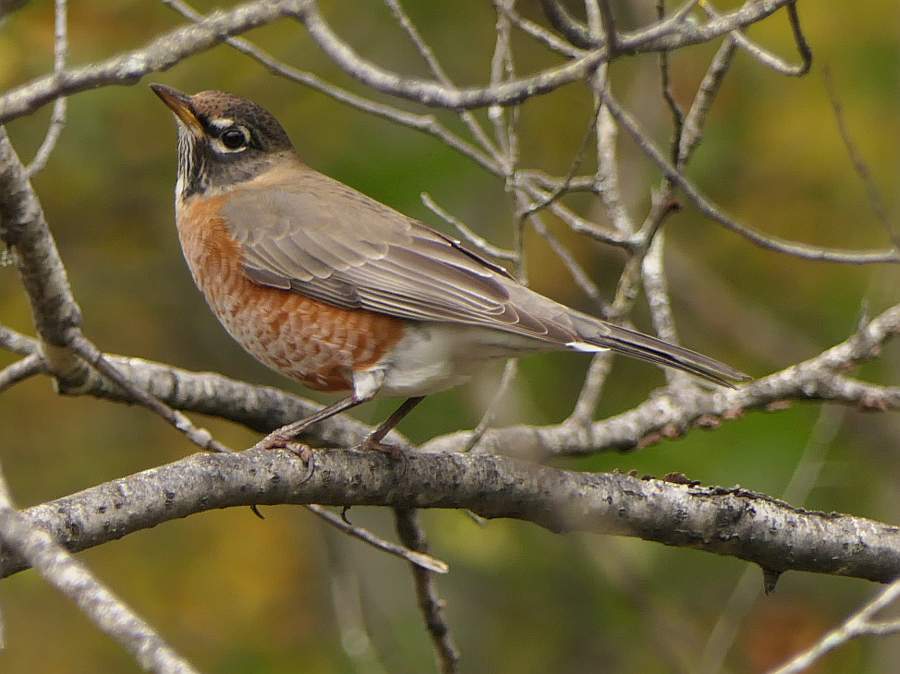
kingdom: Animalia
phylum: Chordata
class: Aves
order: Passeriformes
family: Turdidae
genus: Turdus
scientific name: Turdus migratorius
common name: American robin
